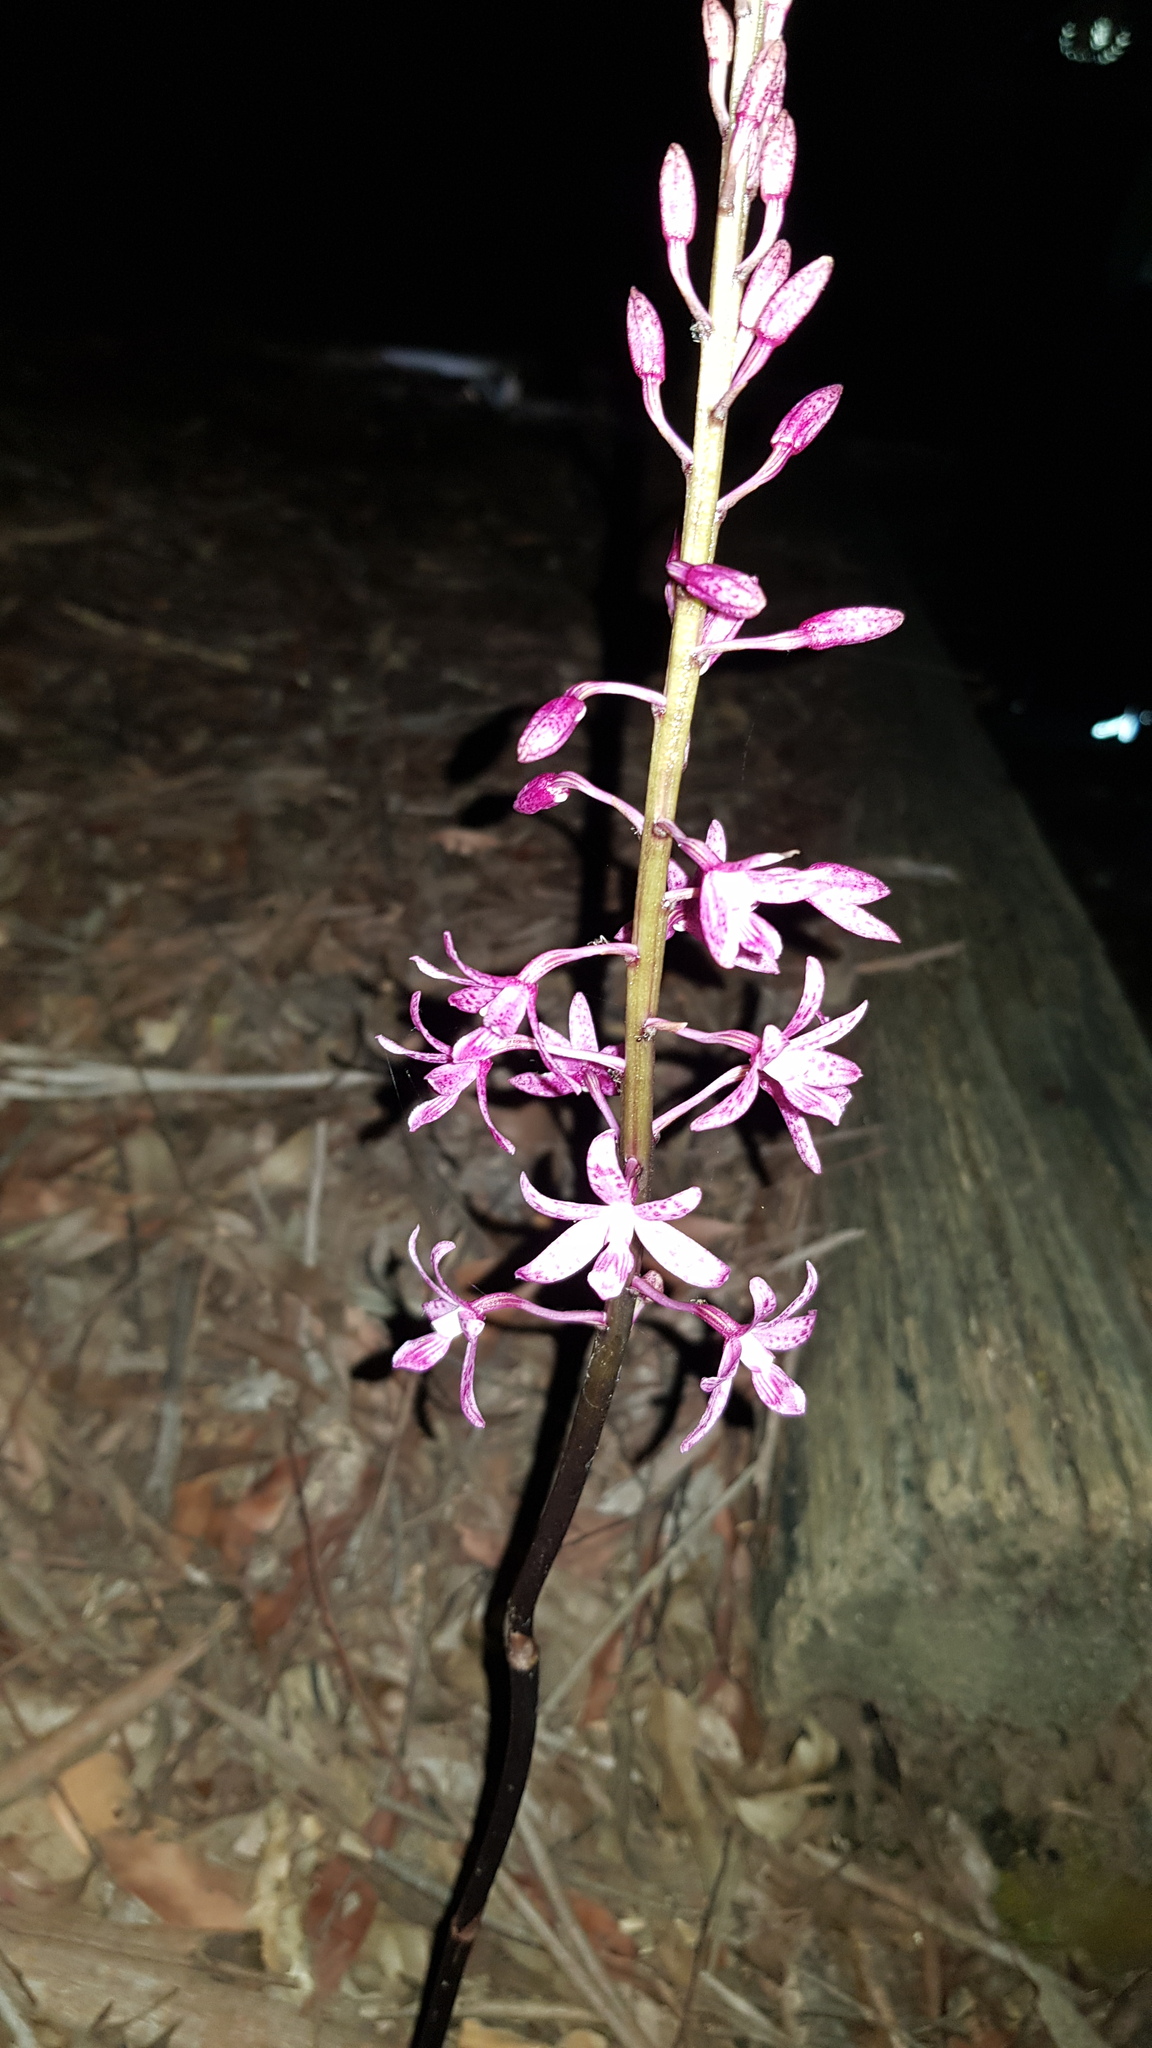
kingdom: Plantae
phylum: Tracheophyta
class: Liliopsida
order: Asparagales
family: Orchidaceae
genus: Dipodium
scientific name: Dipodium roseum
